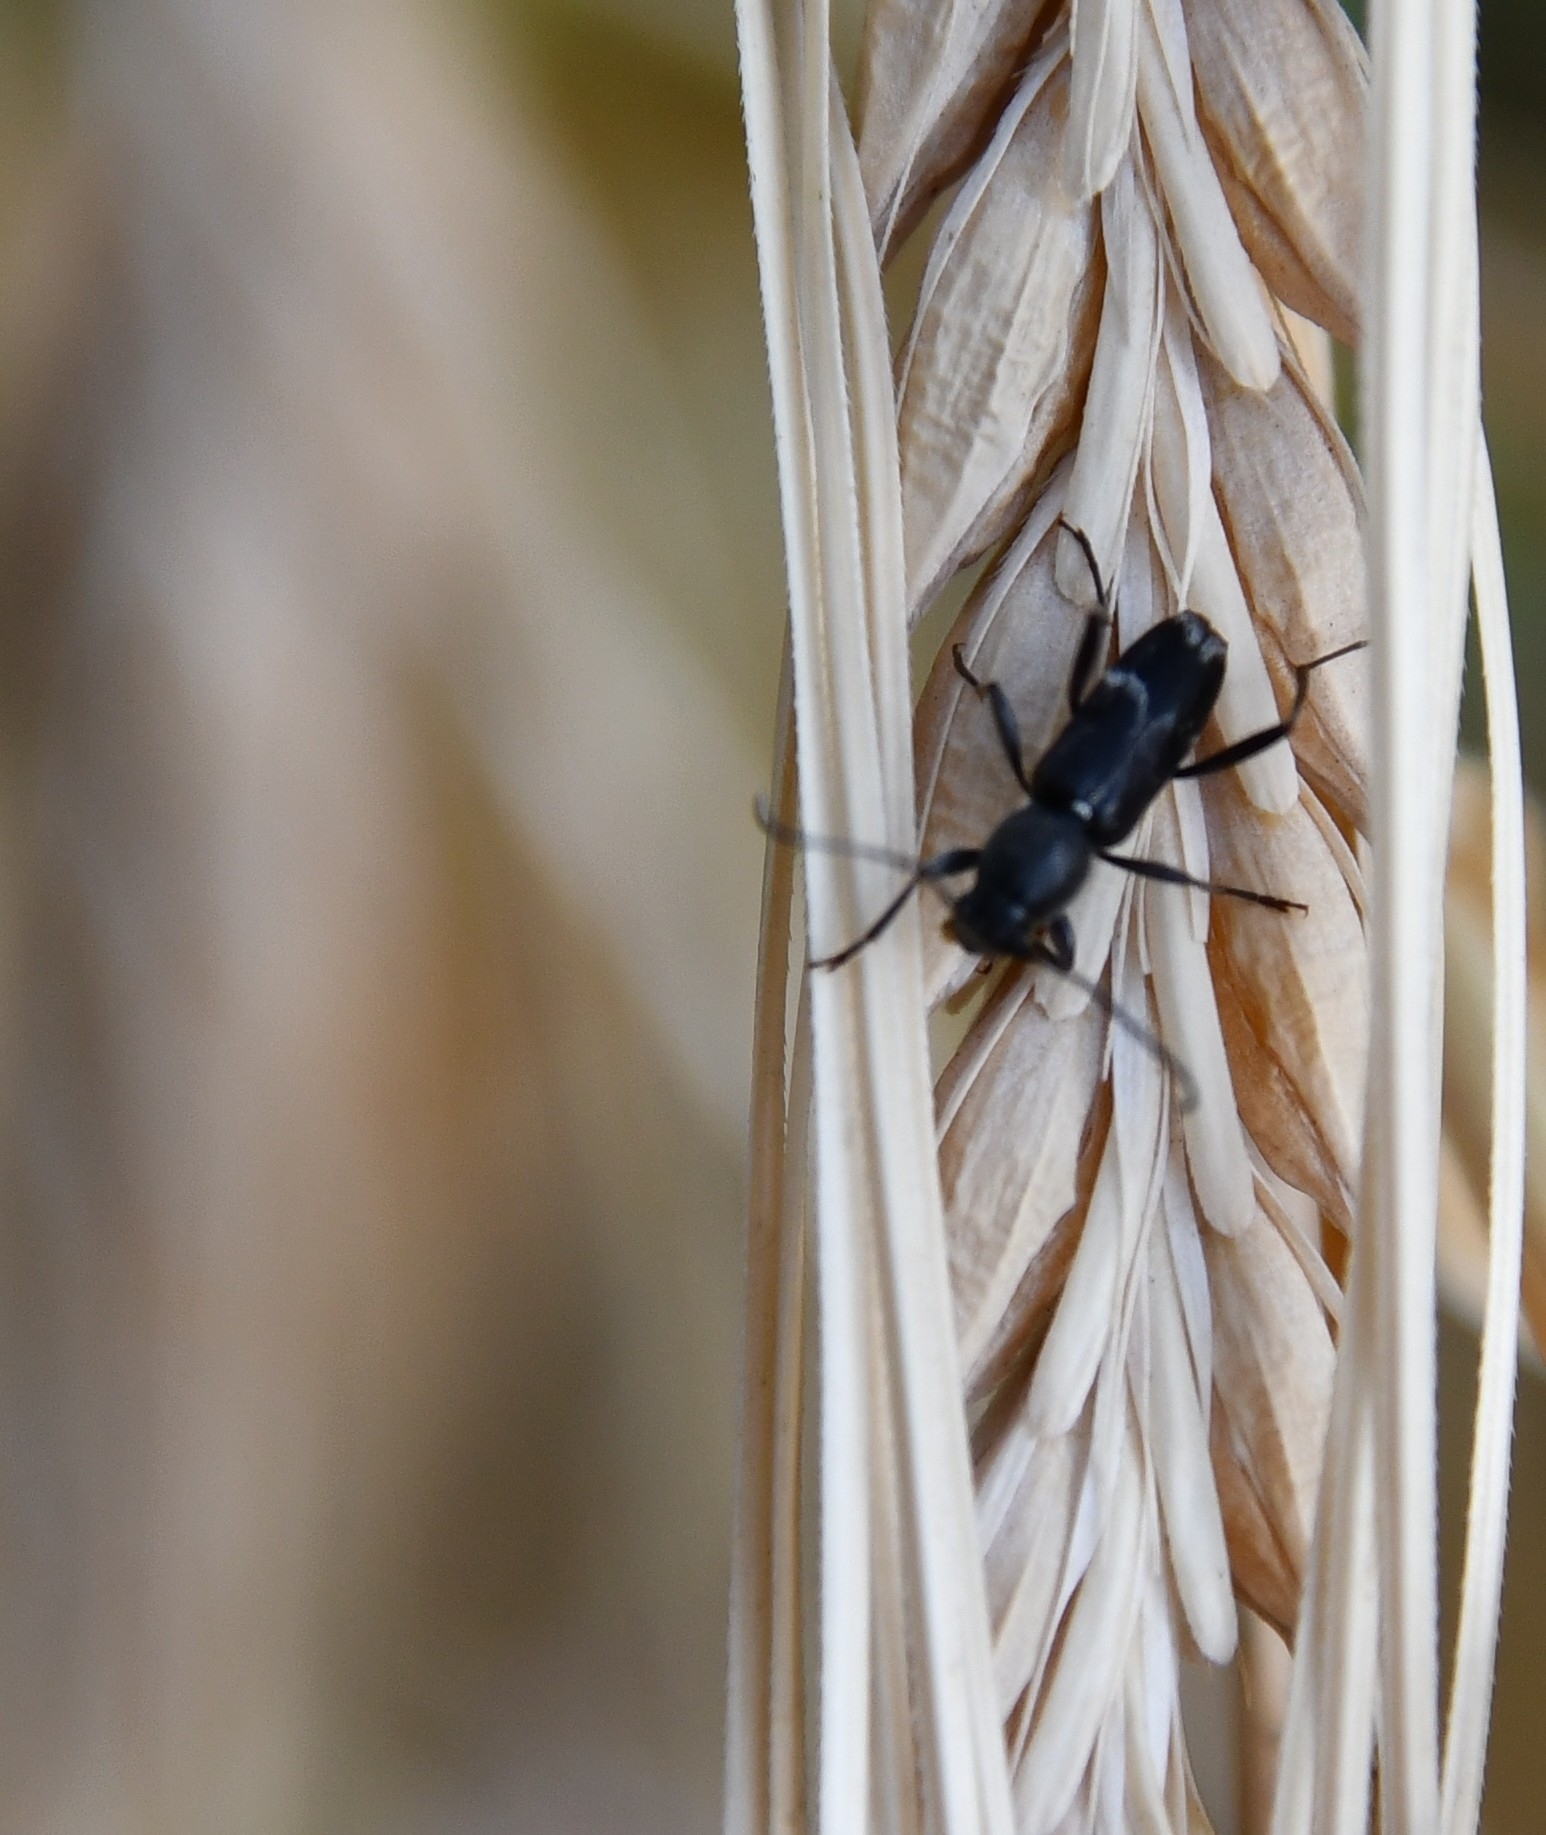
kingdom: Animalia
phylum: Arthropoda
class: Insecta
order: Coleoptera
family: Cerambycidae
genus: Chlorophorus
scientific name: Chlorophorus sartor
